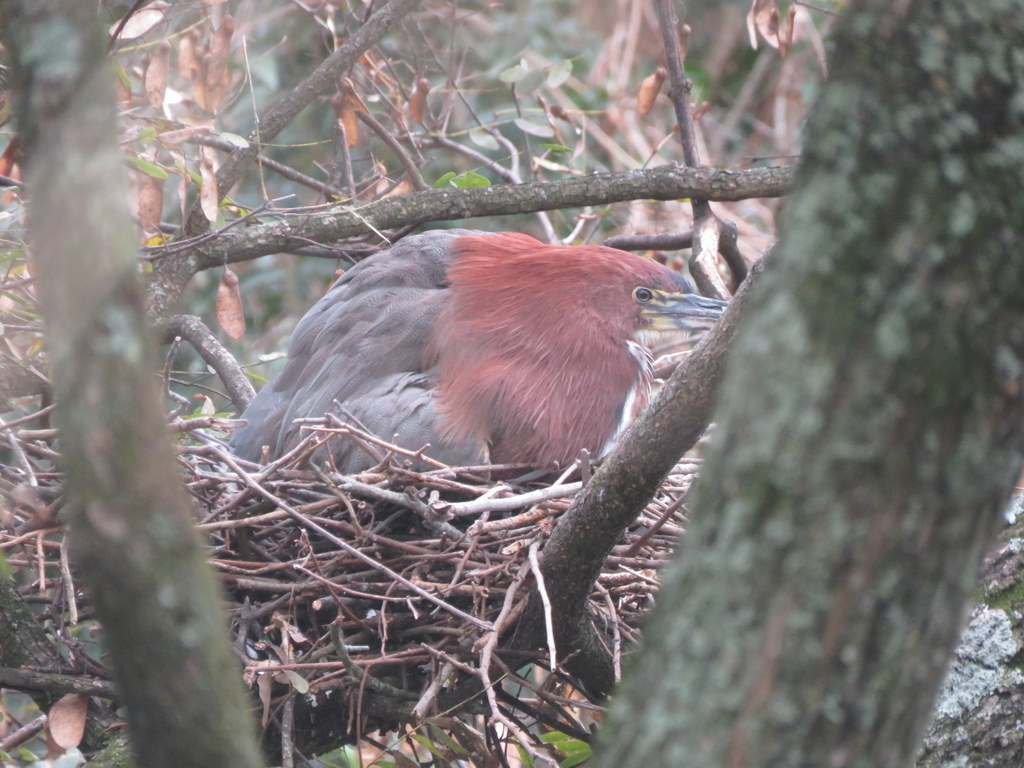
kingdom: Animalia
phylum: Chordata
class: Aves
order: Pelecaniformes
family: Ardeidae
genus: Tigrisoma
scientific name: Tigrisoma lineatum
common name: Rufescent tiger-heron
